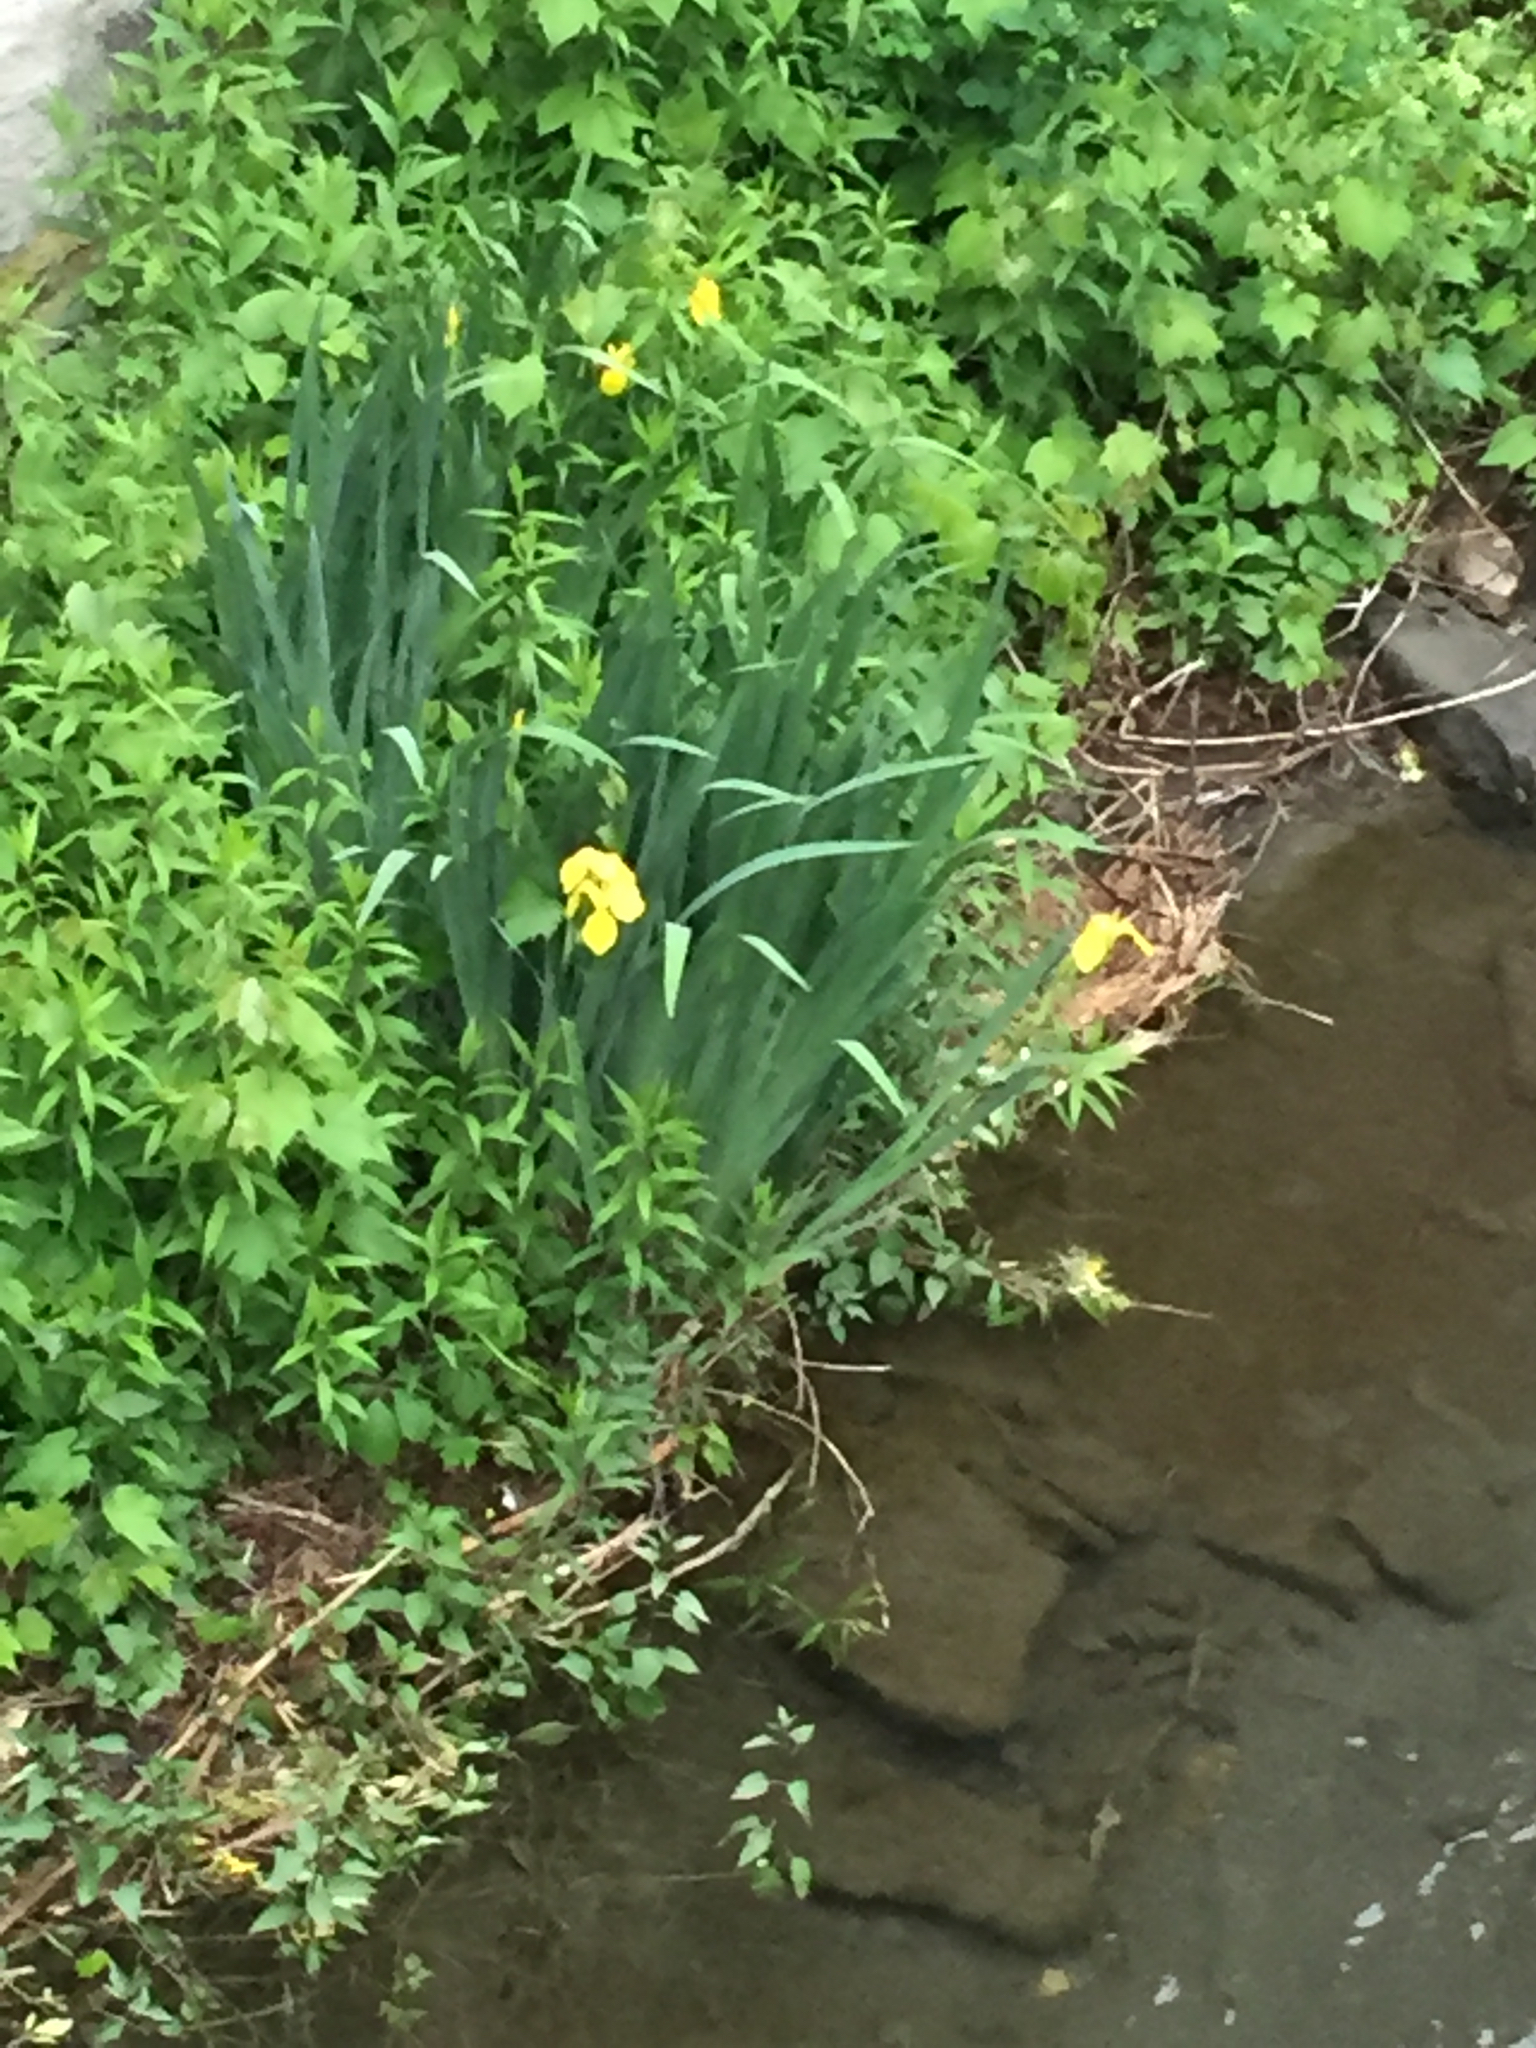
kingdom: Plantae
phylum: Tracheophyta
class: Liliopsida
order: Asparagales
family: Iridaceae
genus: Iris
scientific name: Iris pseudacorus
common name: Yellow flag
